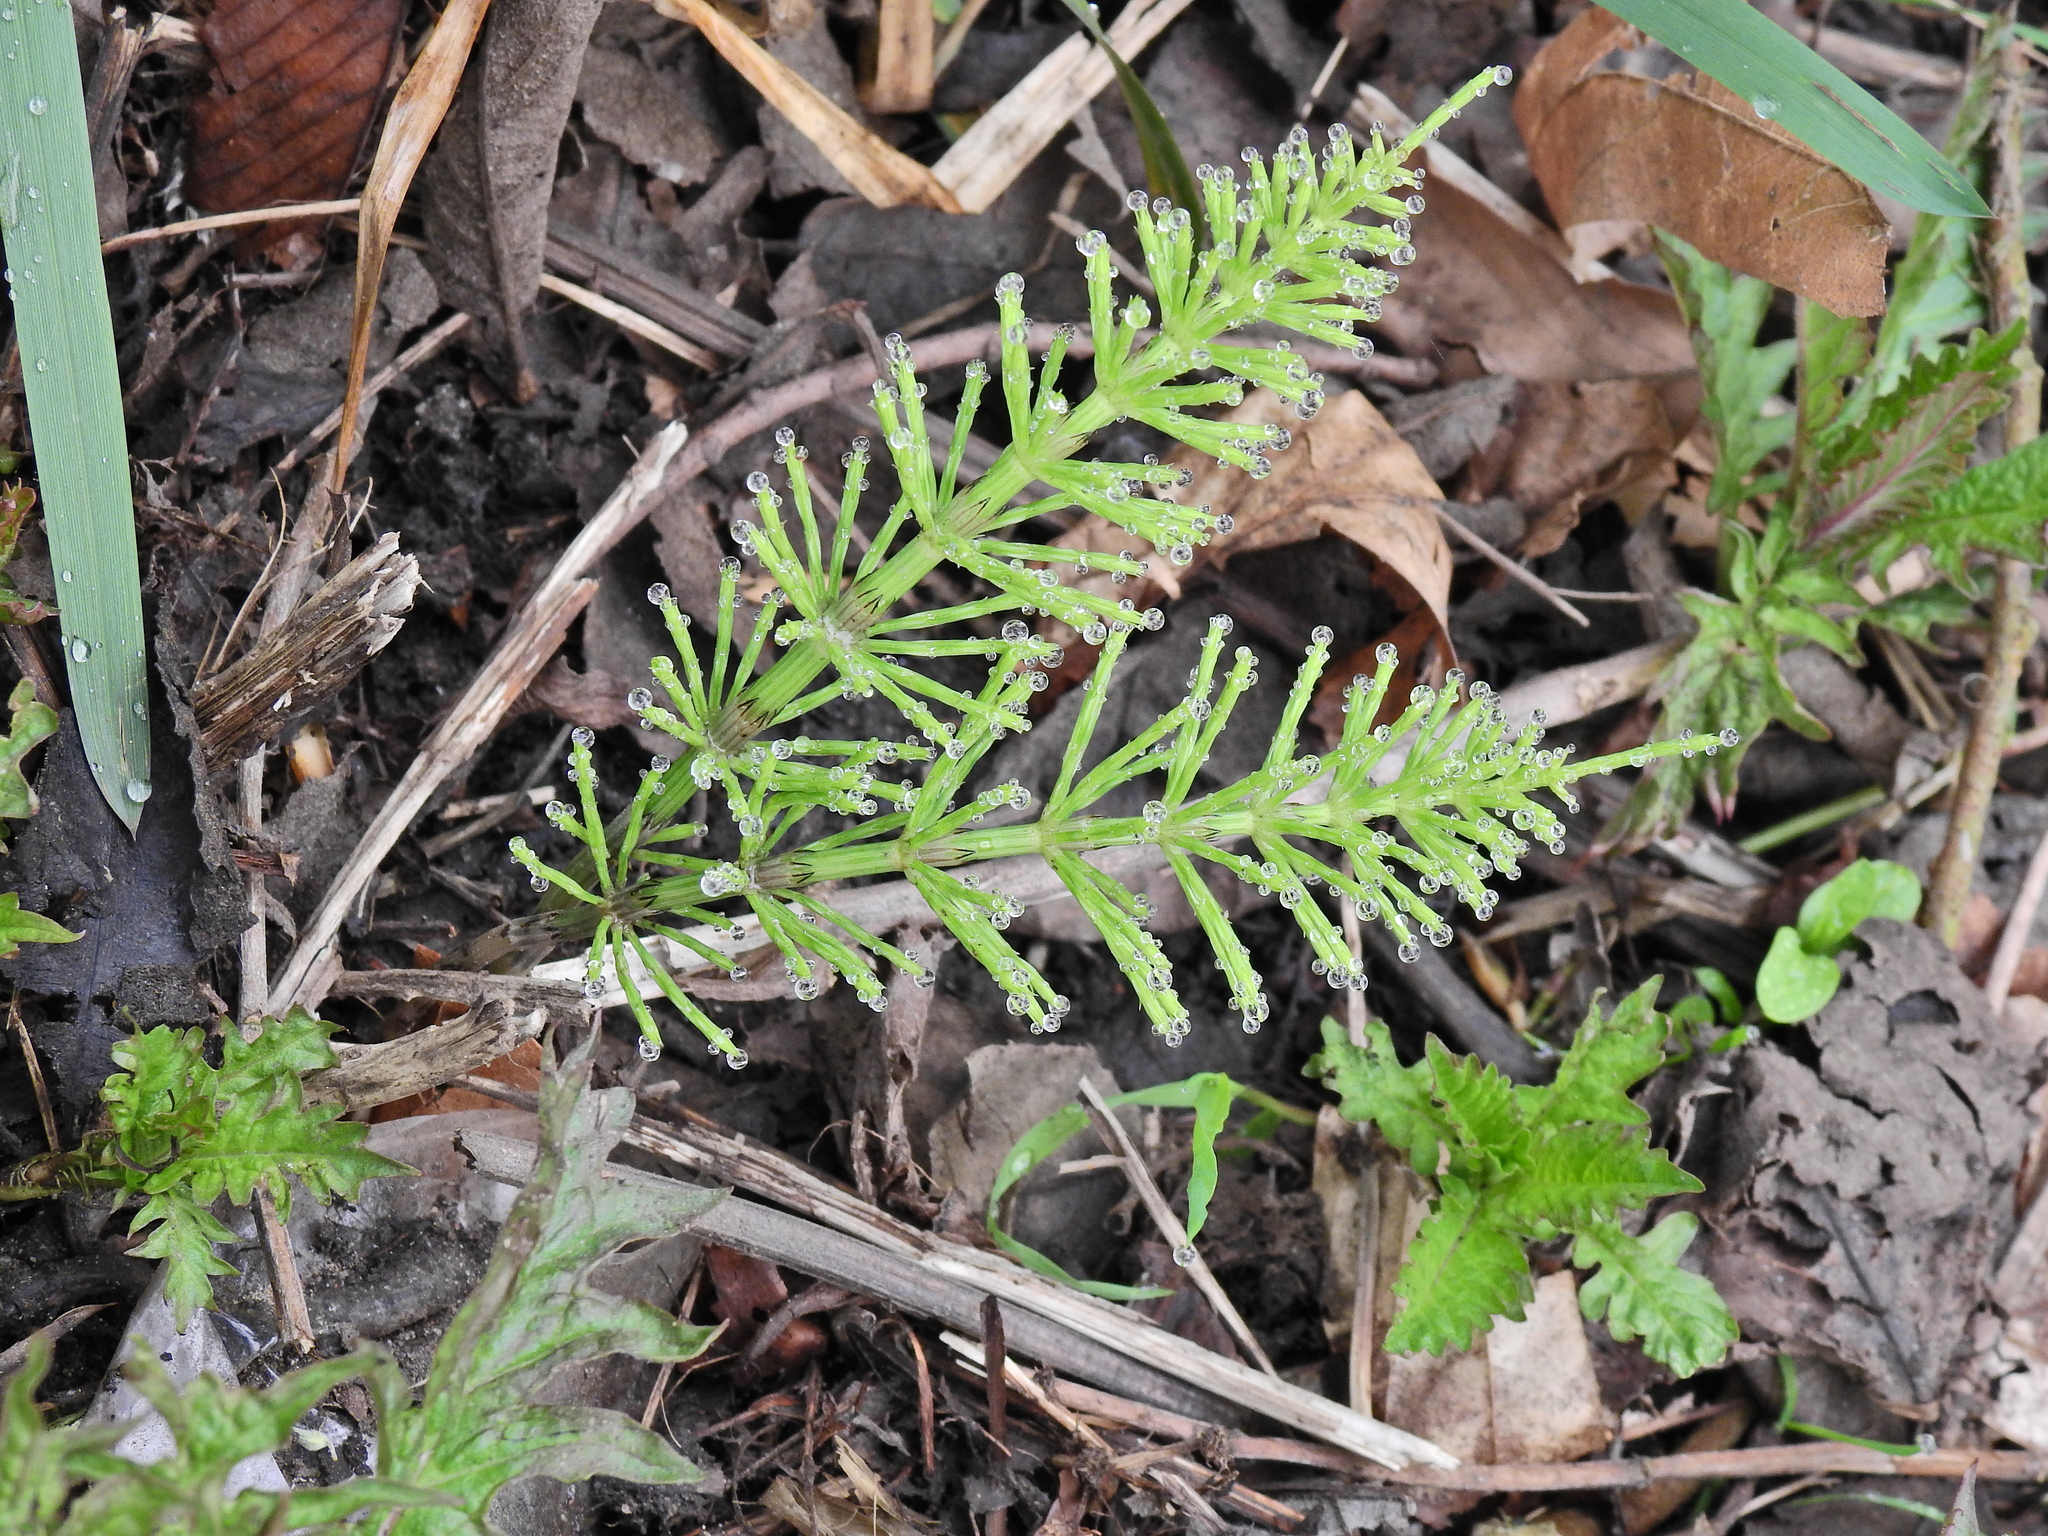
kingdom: Plantae
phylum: Tracheophyta
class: Polypodiopsida
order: Equisetales
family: Equisetaceae
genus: Equisetum
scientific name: Equisetum arvense
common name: Field horsetail
